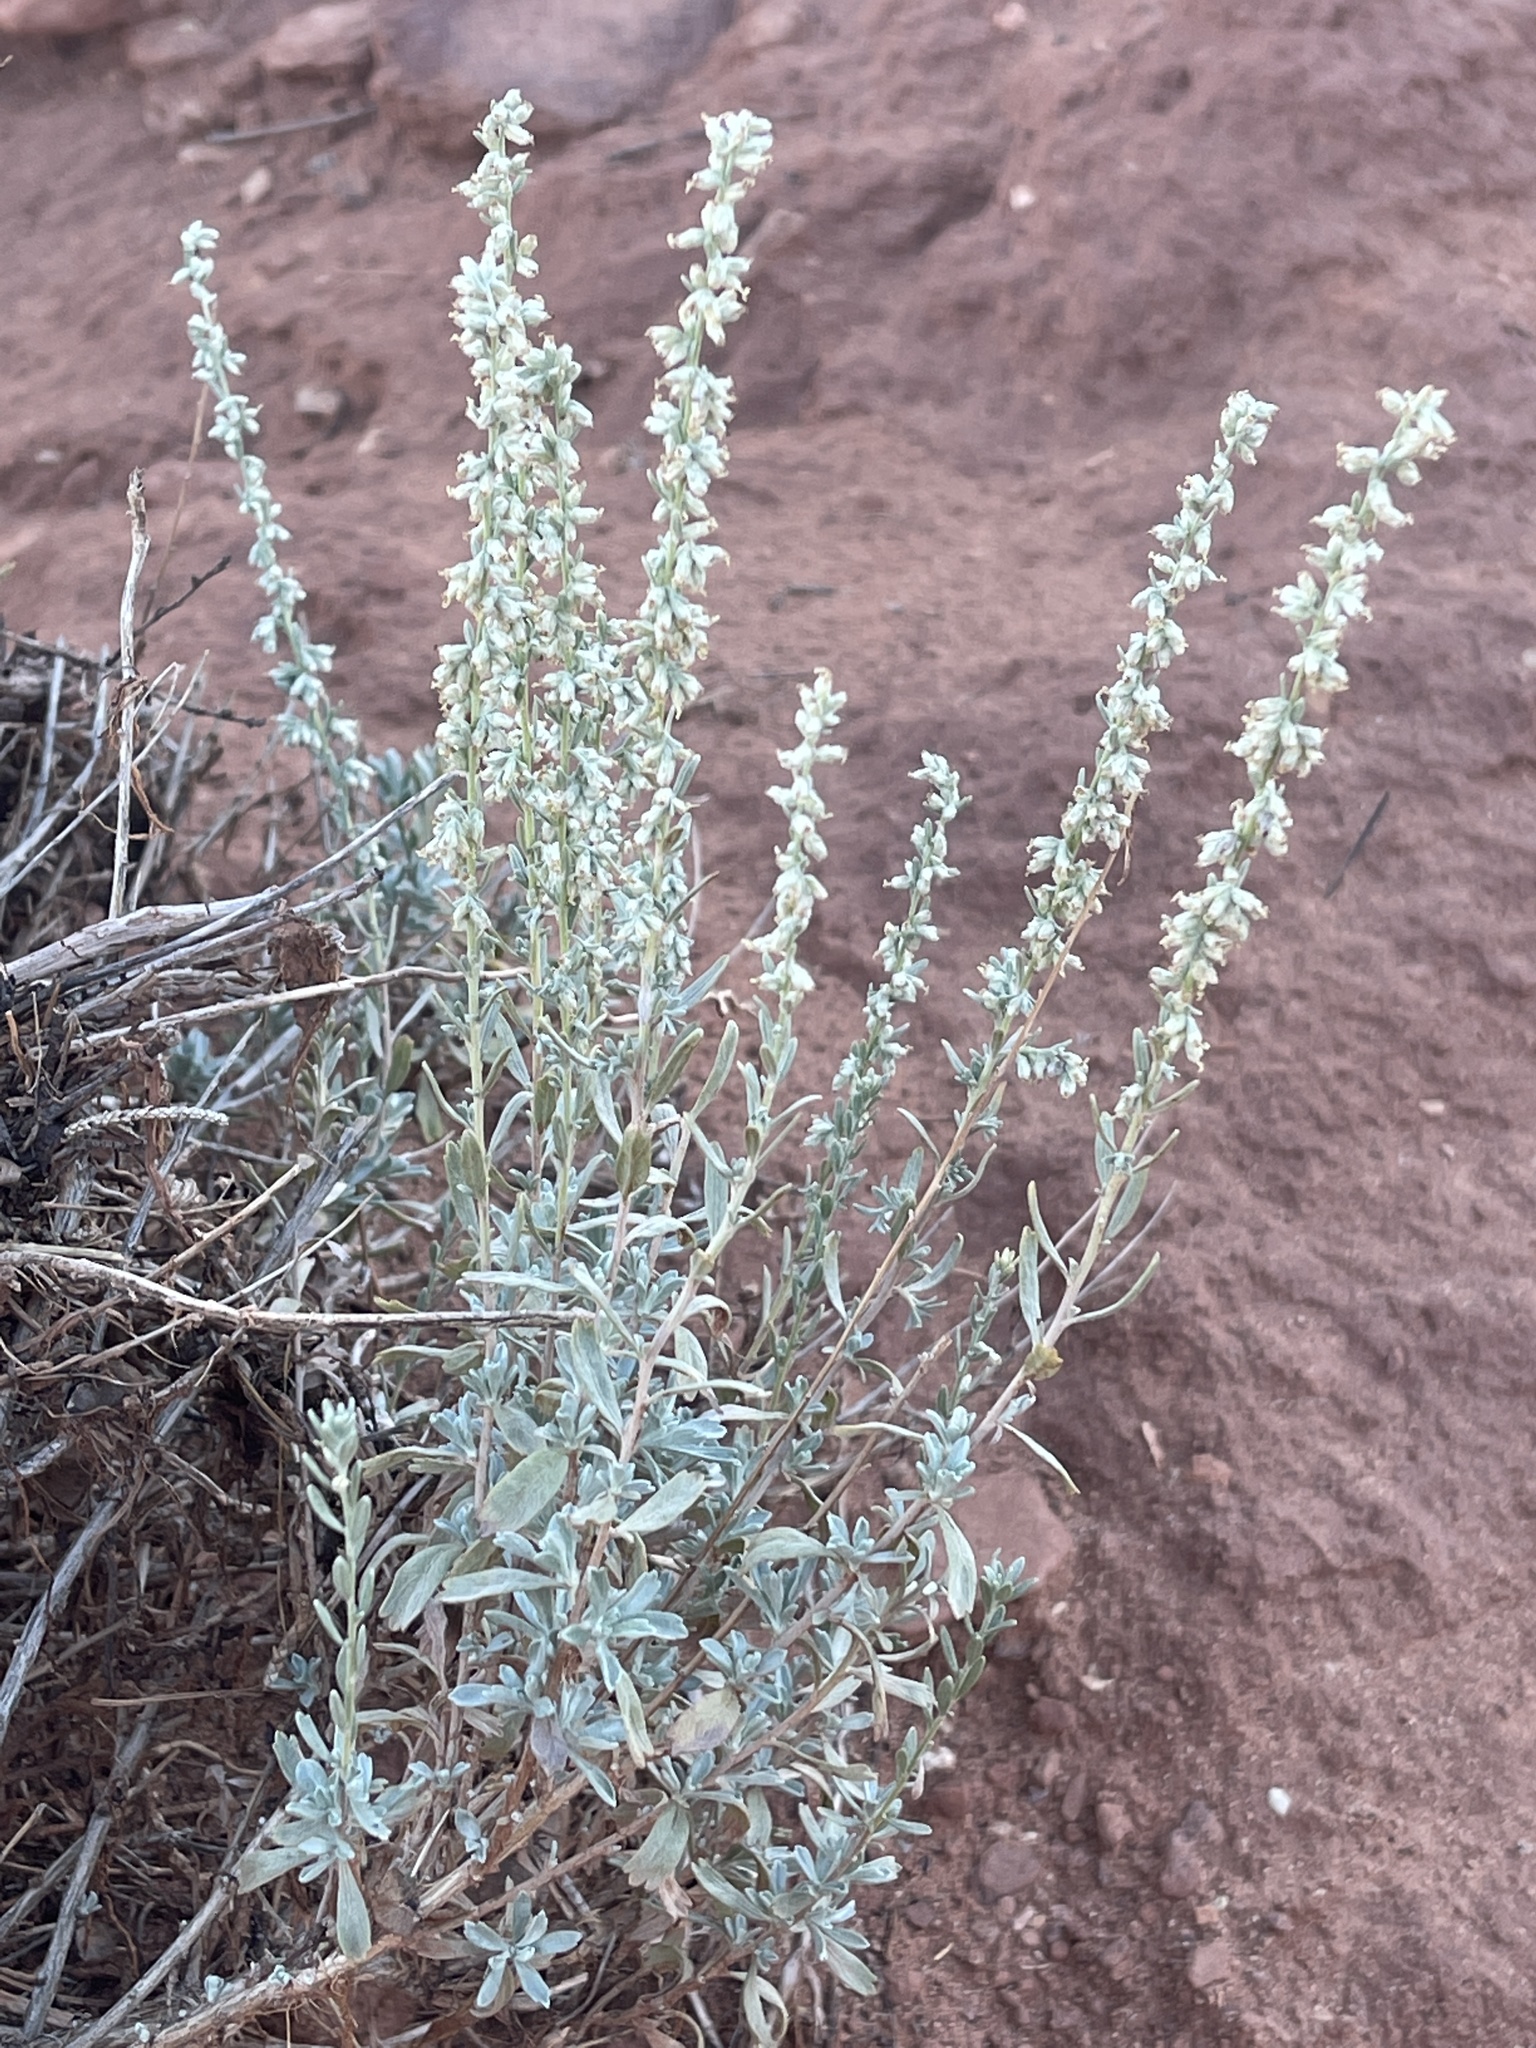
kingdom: Plantae
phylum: Tracheophyta
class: Magnoliopsida
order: Asterales
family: Asteraceae
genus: Artemisia
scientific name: Artemisia tridentata
